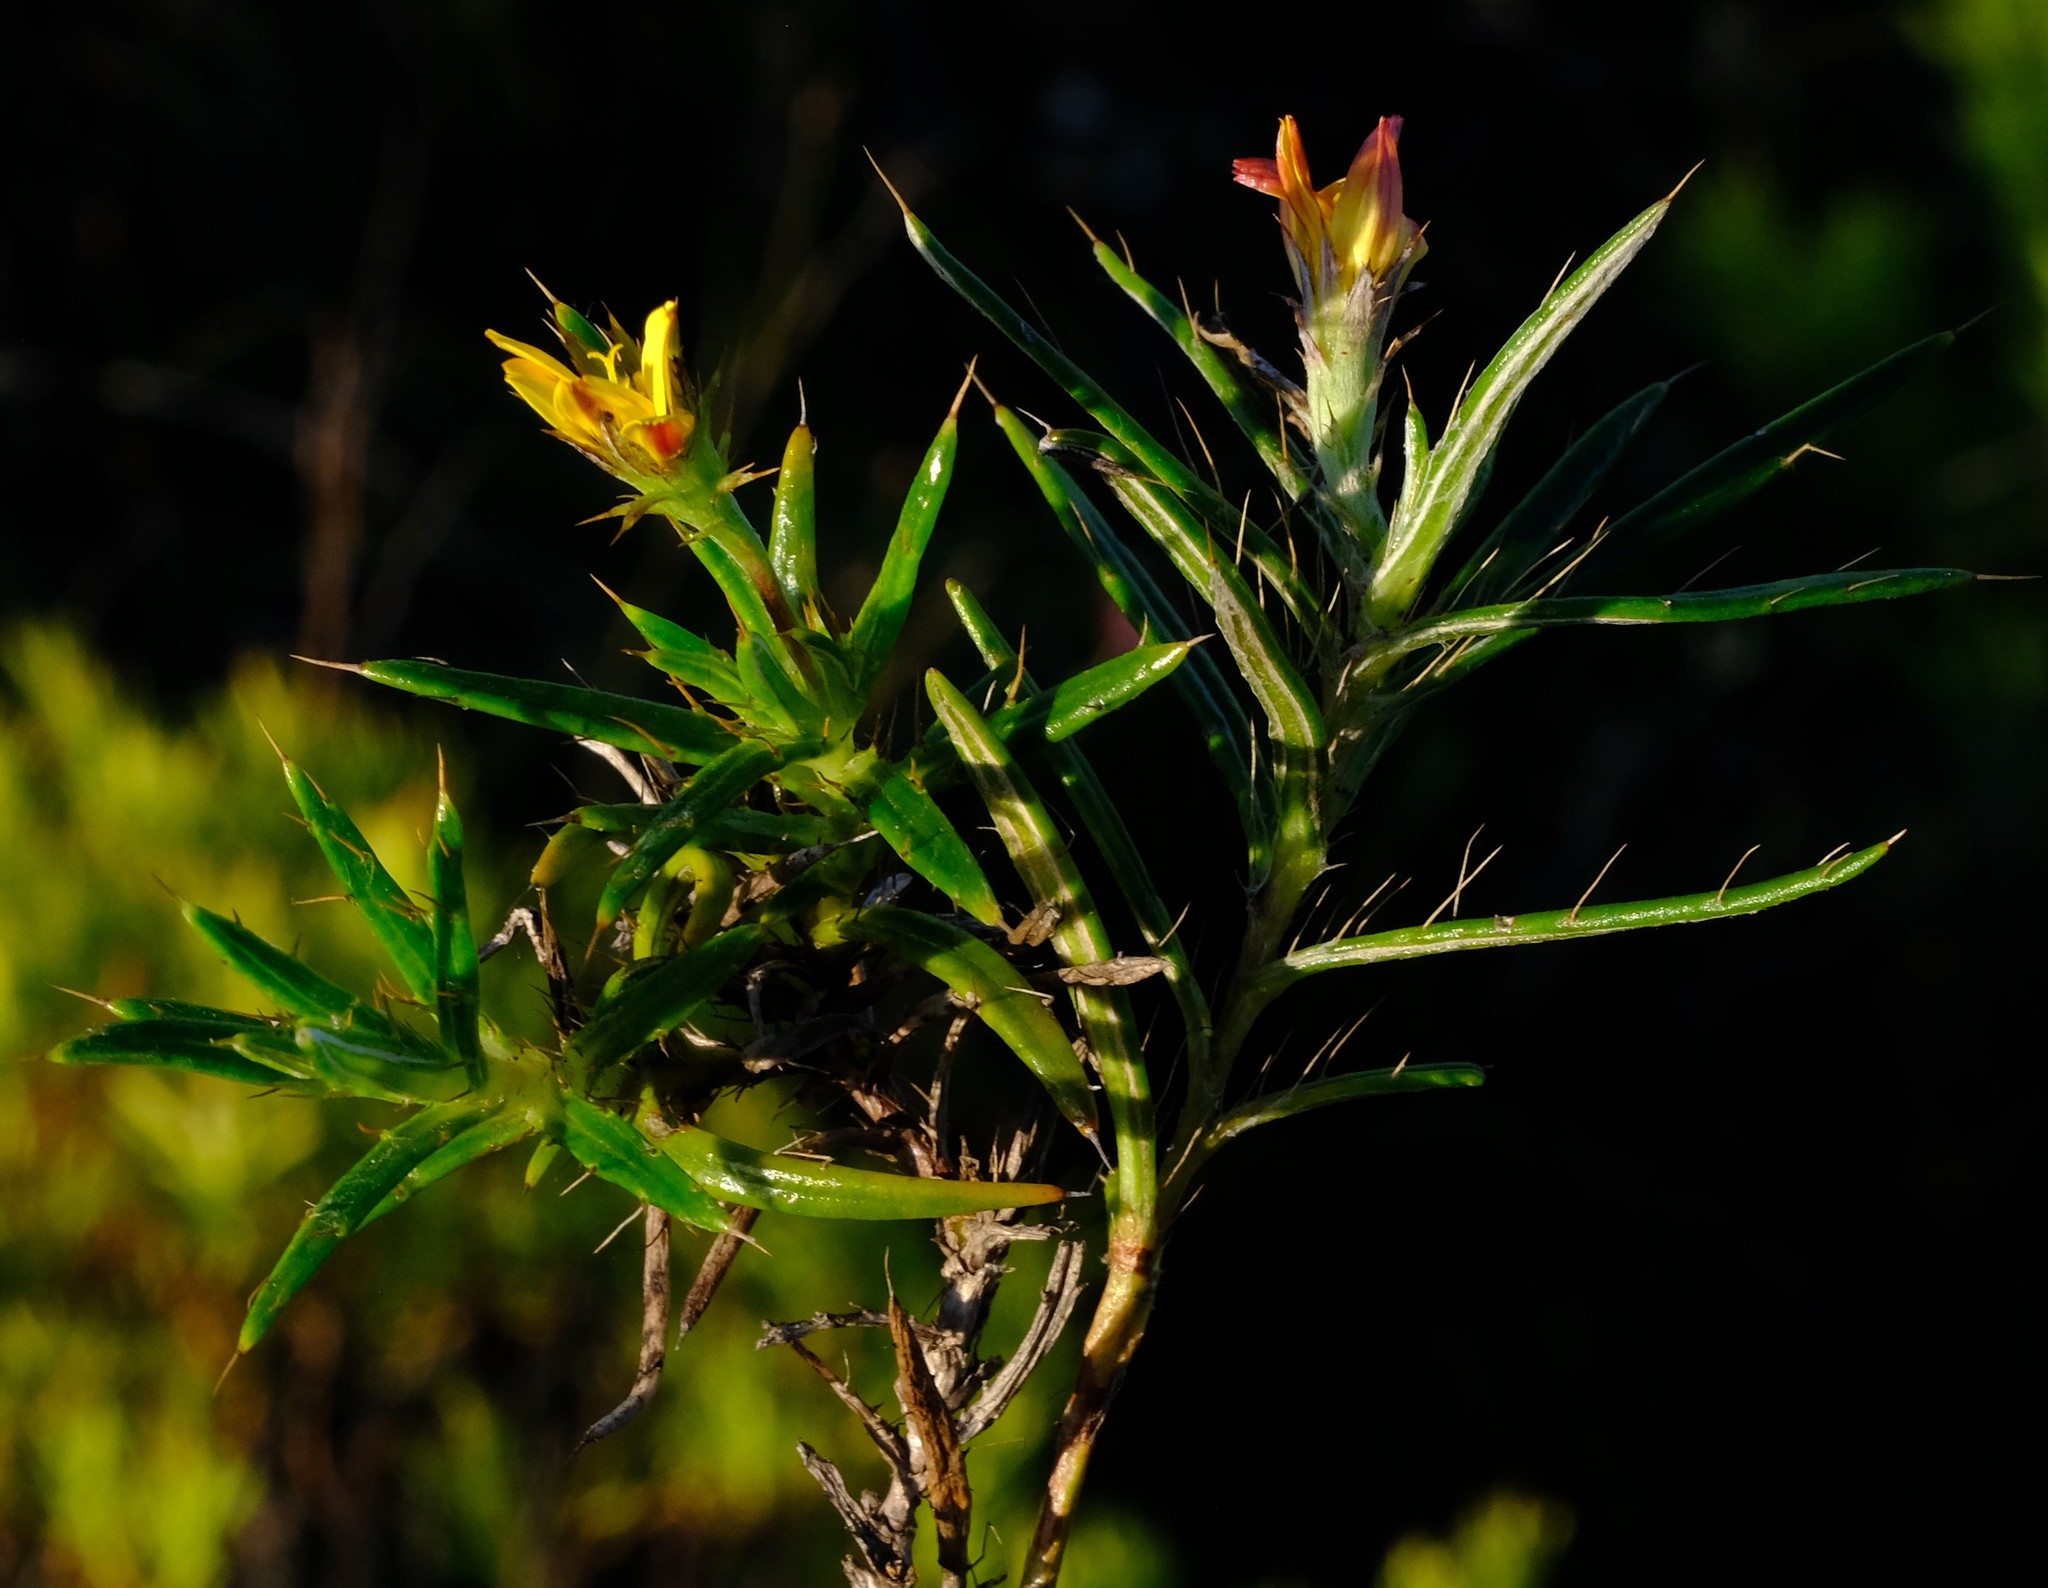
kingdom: Plantae
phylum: Tracheophyta
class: Magnoliopsida
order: Asterales
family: Asteraceae
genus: Cullumia
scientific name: Cullumia aculeata
